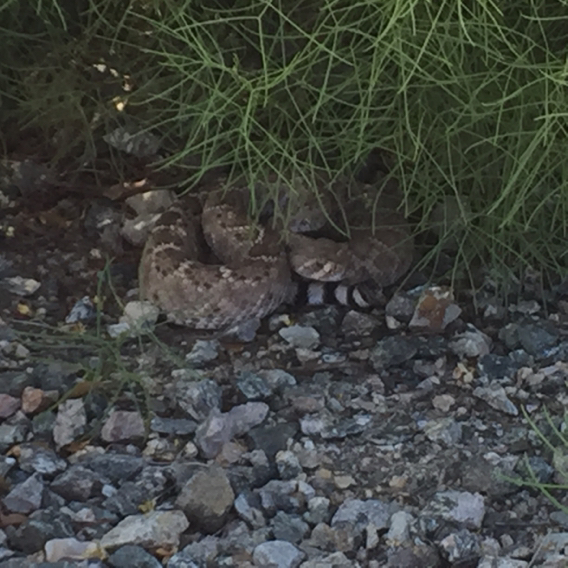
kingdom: Animalia
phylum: Chordata
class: Squamata
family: Viperidae
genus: Crotalus
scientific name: Crotalus atrox
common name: Western diamond-backed rattlesnake
